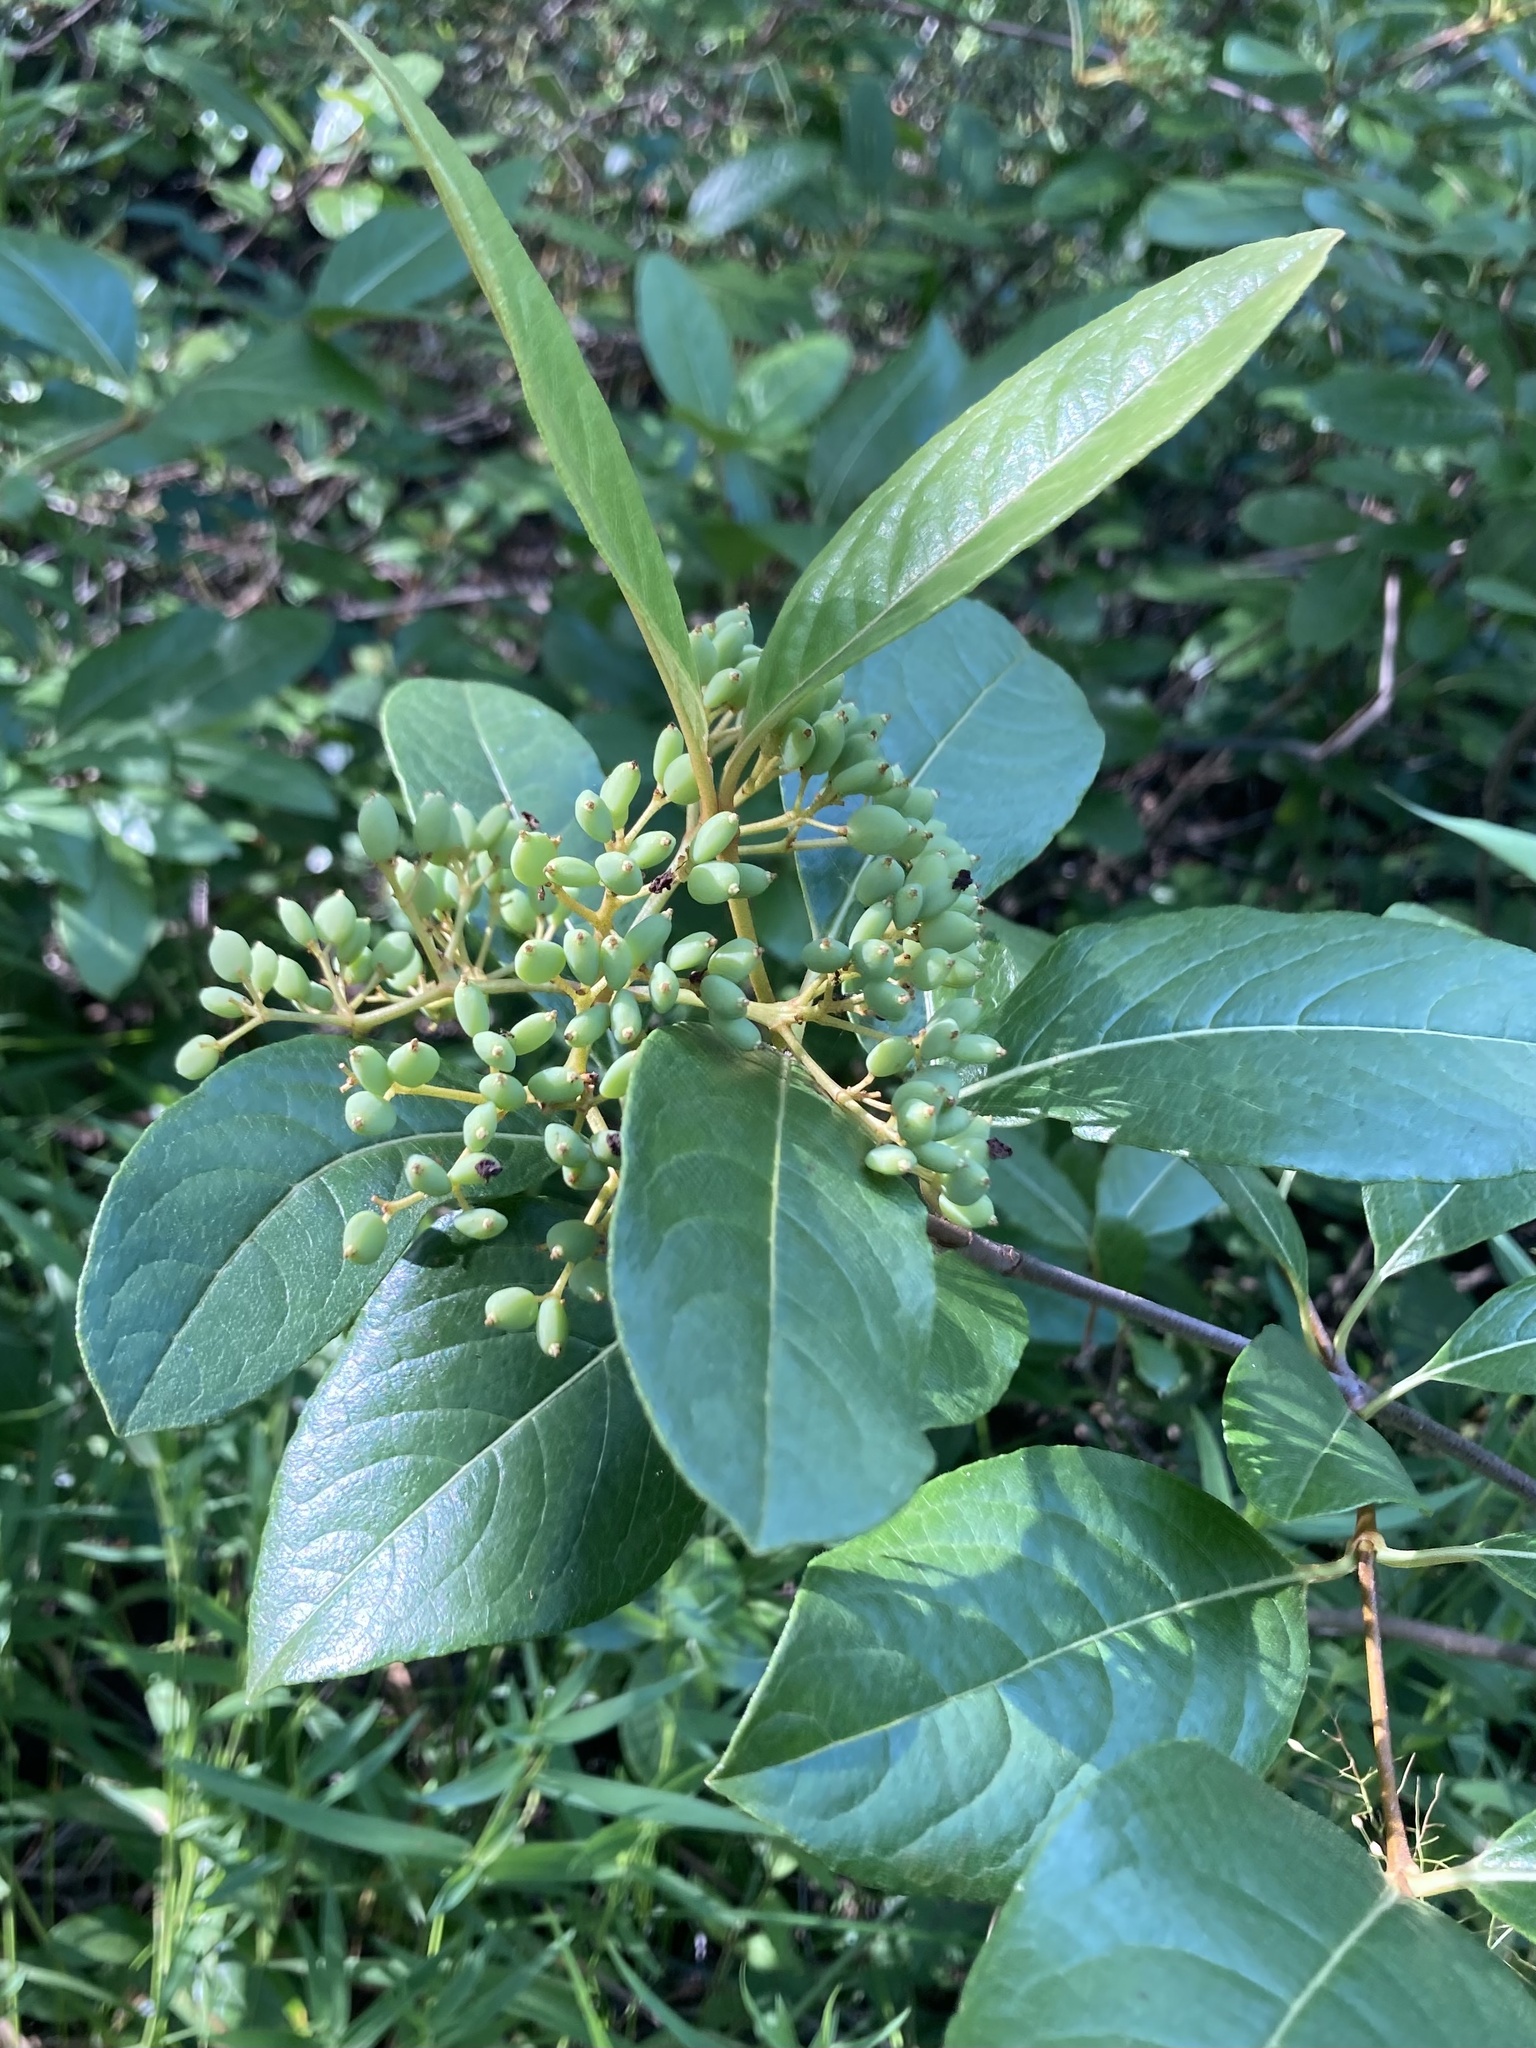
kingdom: Plantae
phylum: Tracheophyta
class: Magnoliopsida
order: Dipsacales
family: Viburnaceae
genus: Viburnum
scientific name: Viburnum nudum
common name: Possum haw
